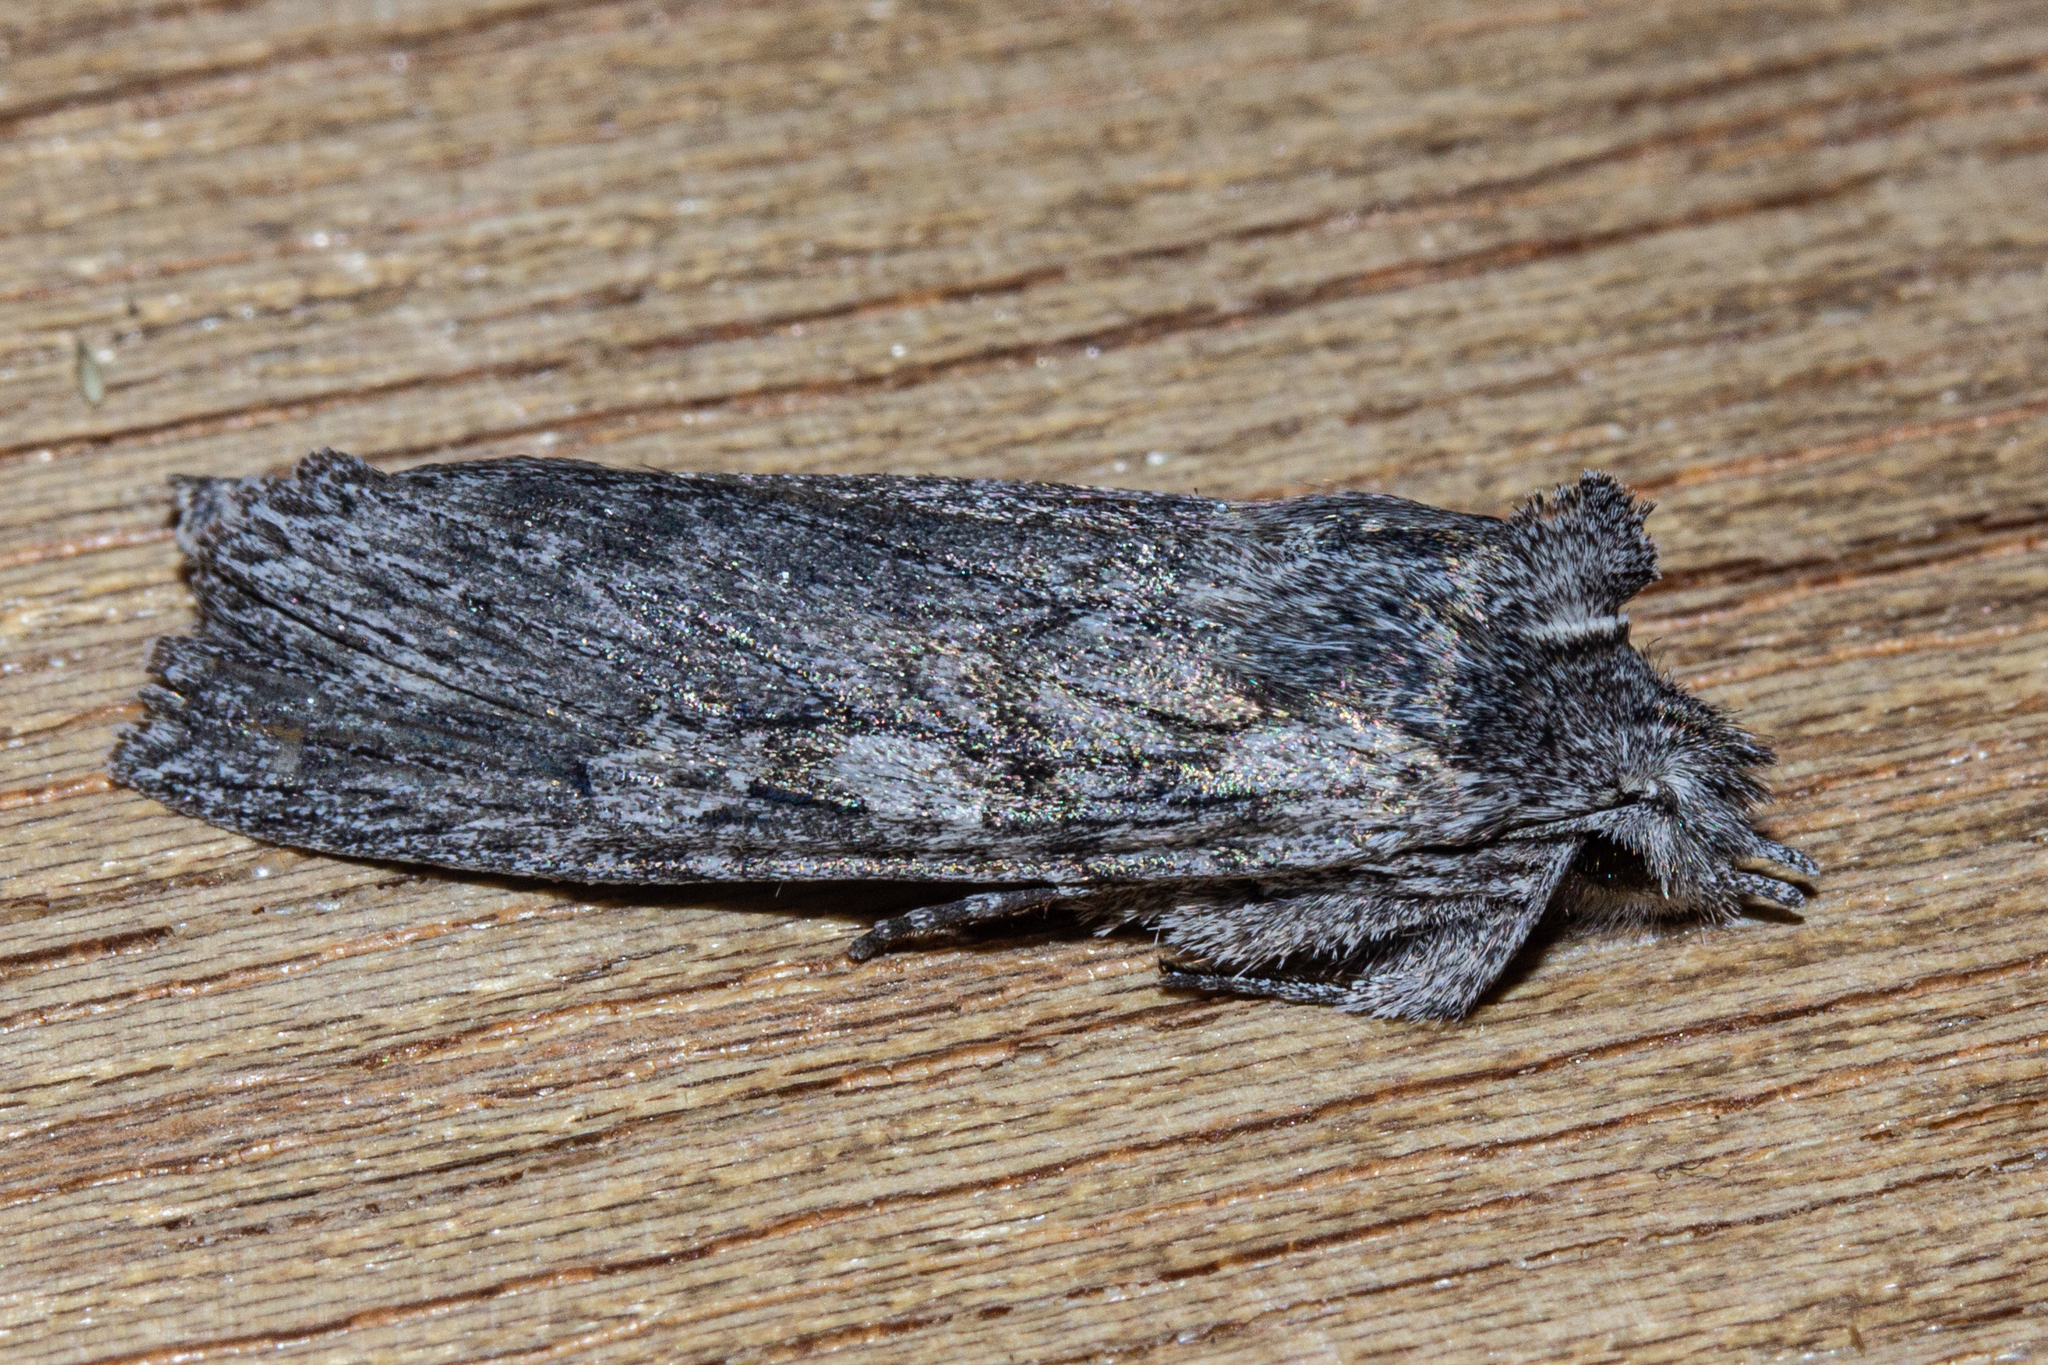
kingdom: Animalia
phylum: Arthropoda
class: Insecta
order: Lepidoptera
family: Noctuidae
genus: Physetica
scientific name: Physetica phricias
